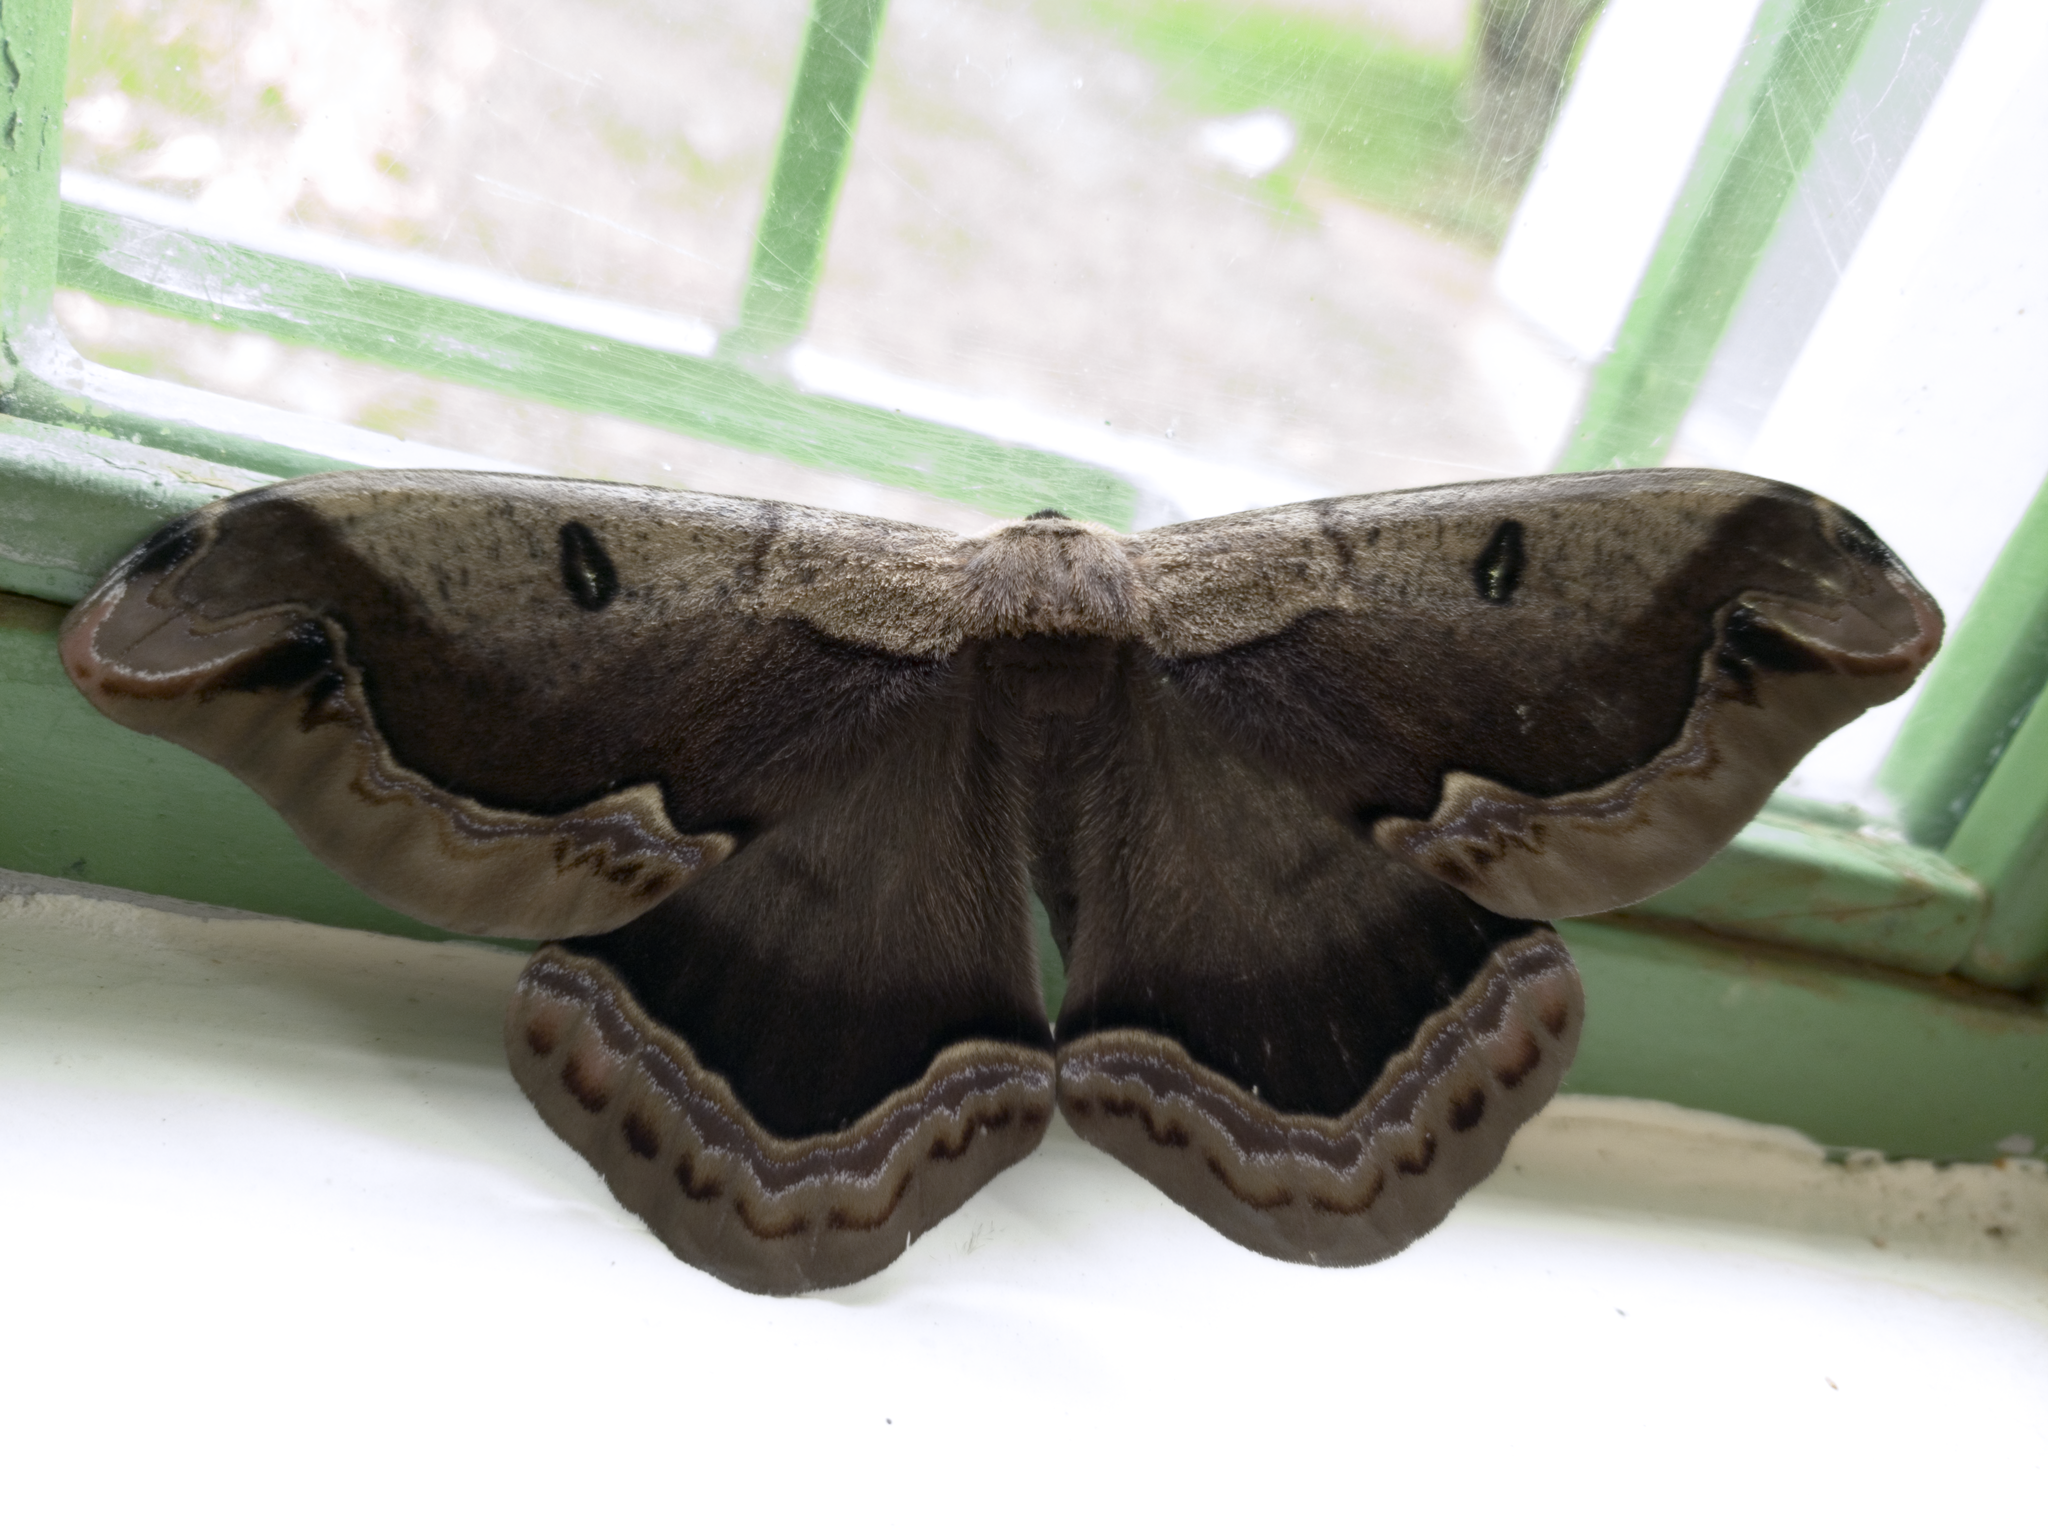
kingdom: Animalia
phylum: Arthropoda
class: Insecta
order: Lepidoptera
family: Saturniidae
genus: Arsenura
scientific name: Arsenura xanthopus
